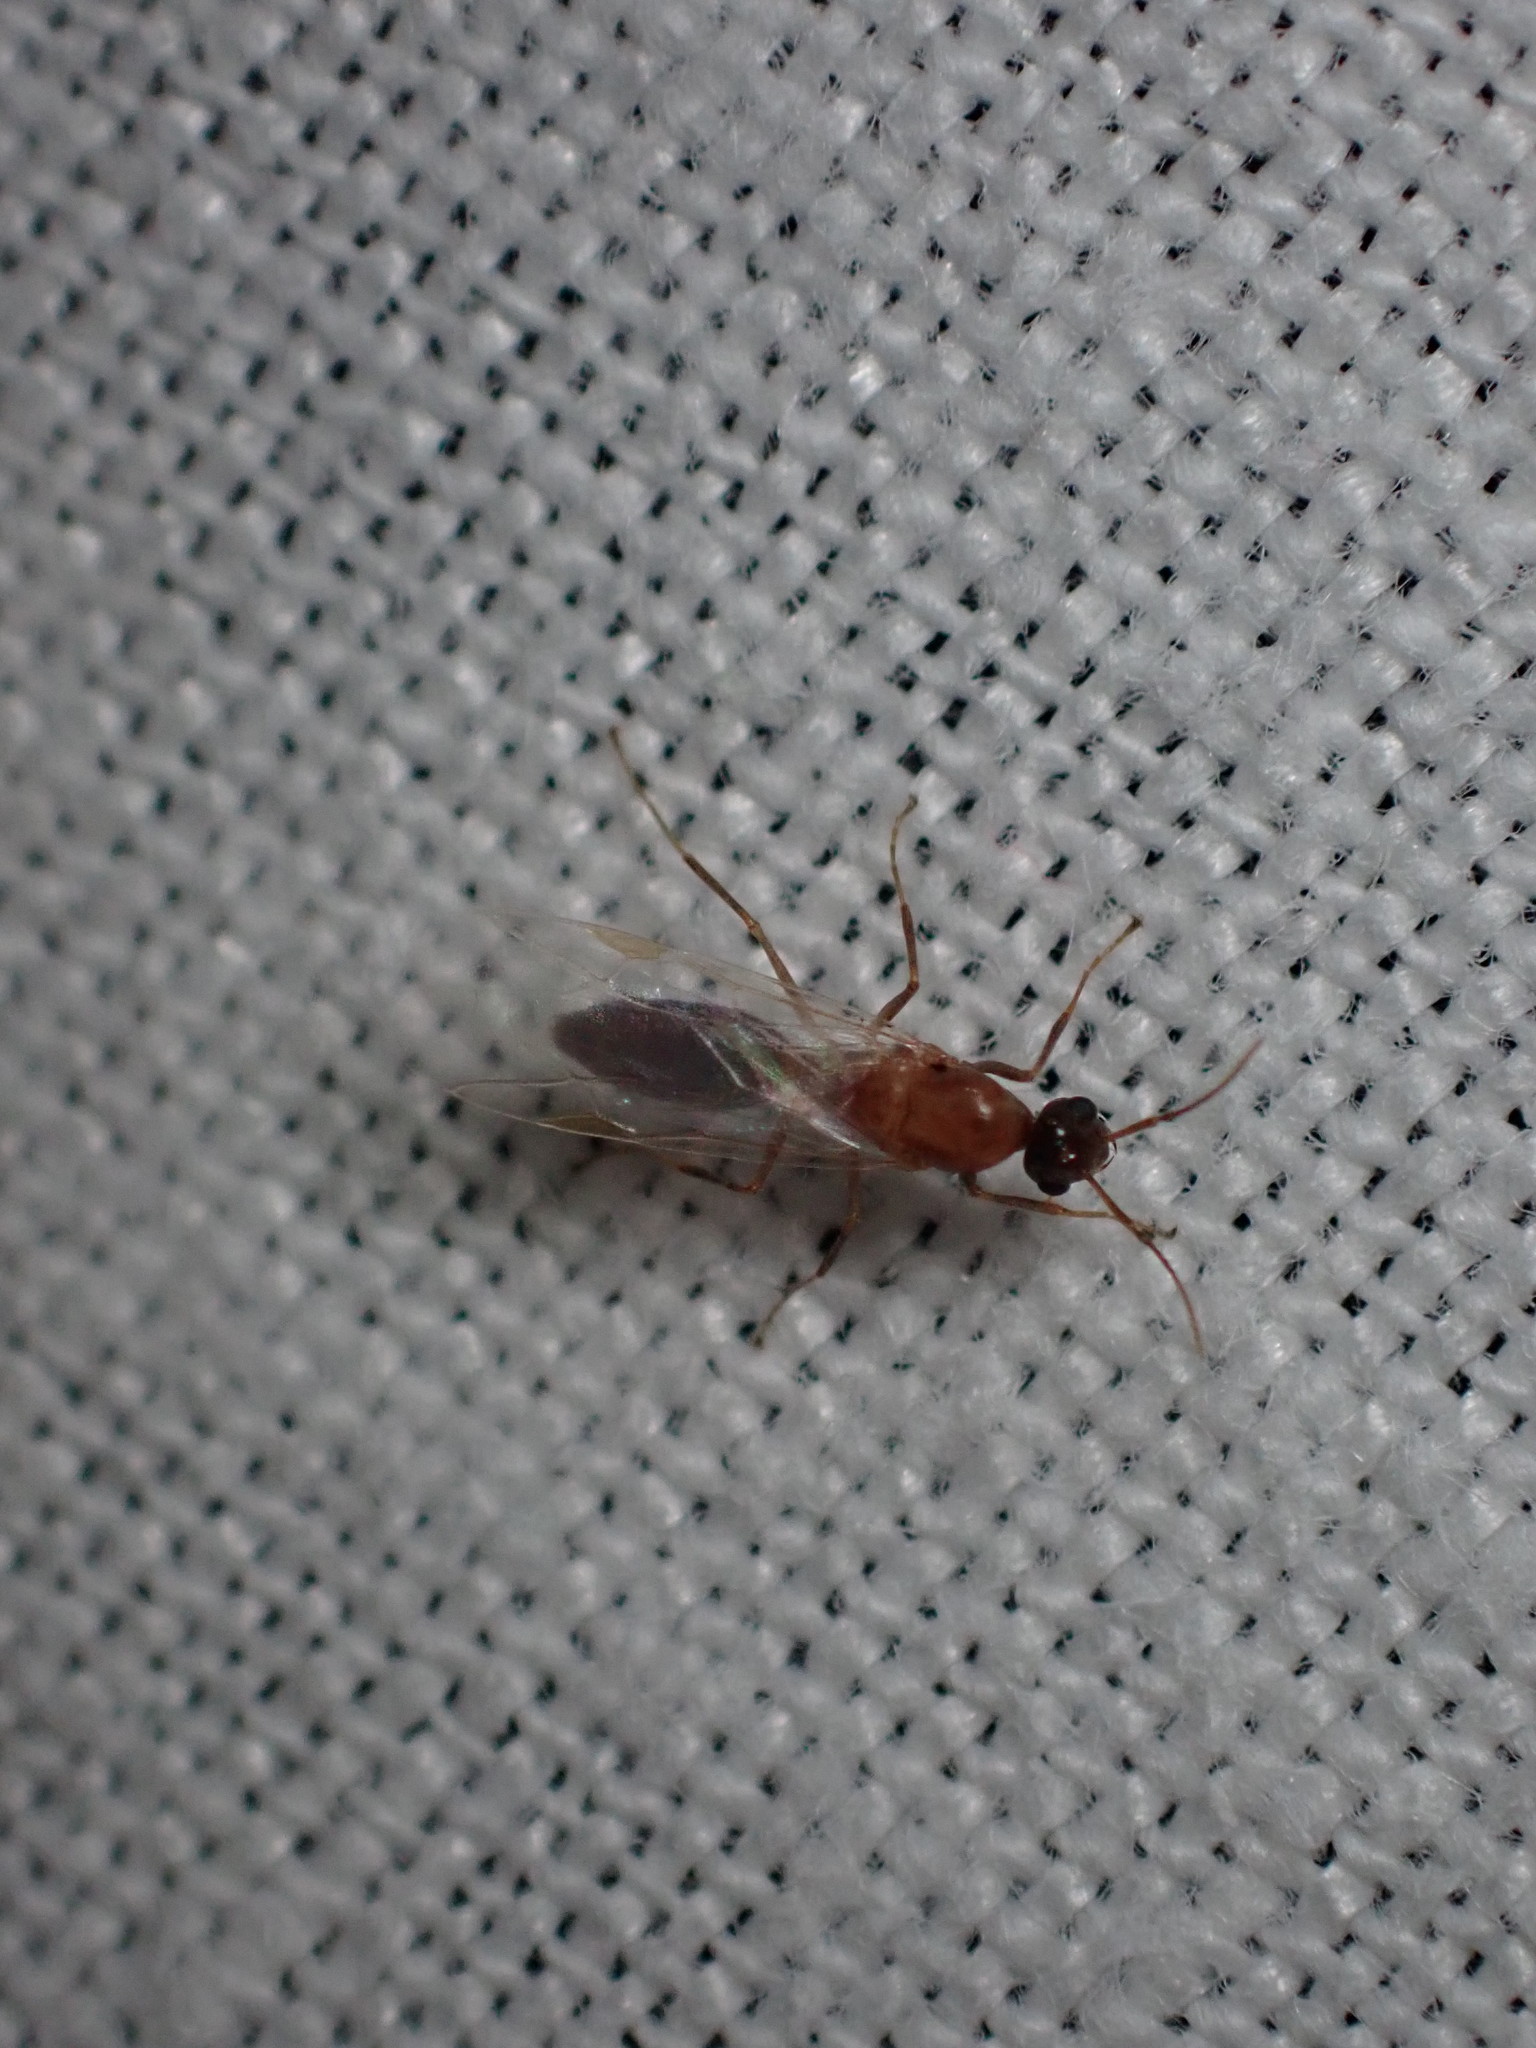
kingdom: Animalia
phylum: Arthropoda
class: Insecta
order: Hymenoptera
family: Formicidae
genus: Camponotus
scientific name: Camponotus truncatus
